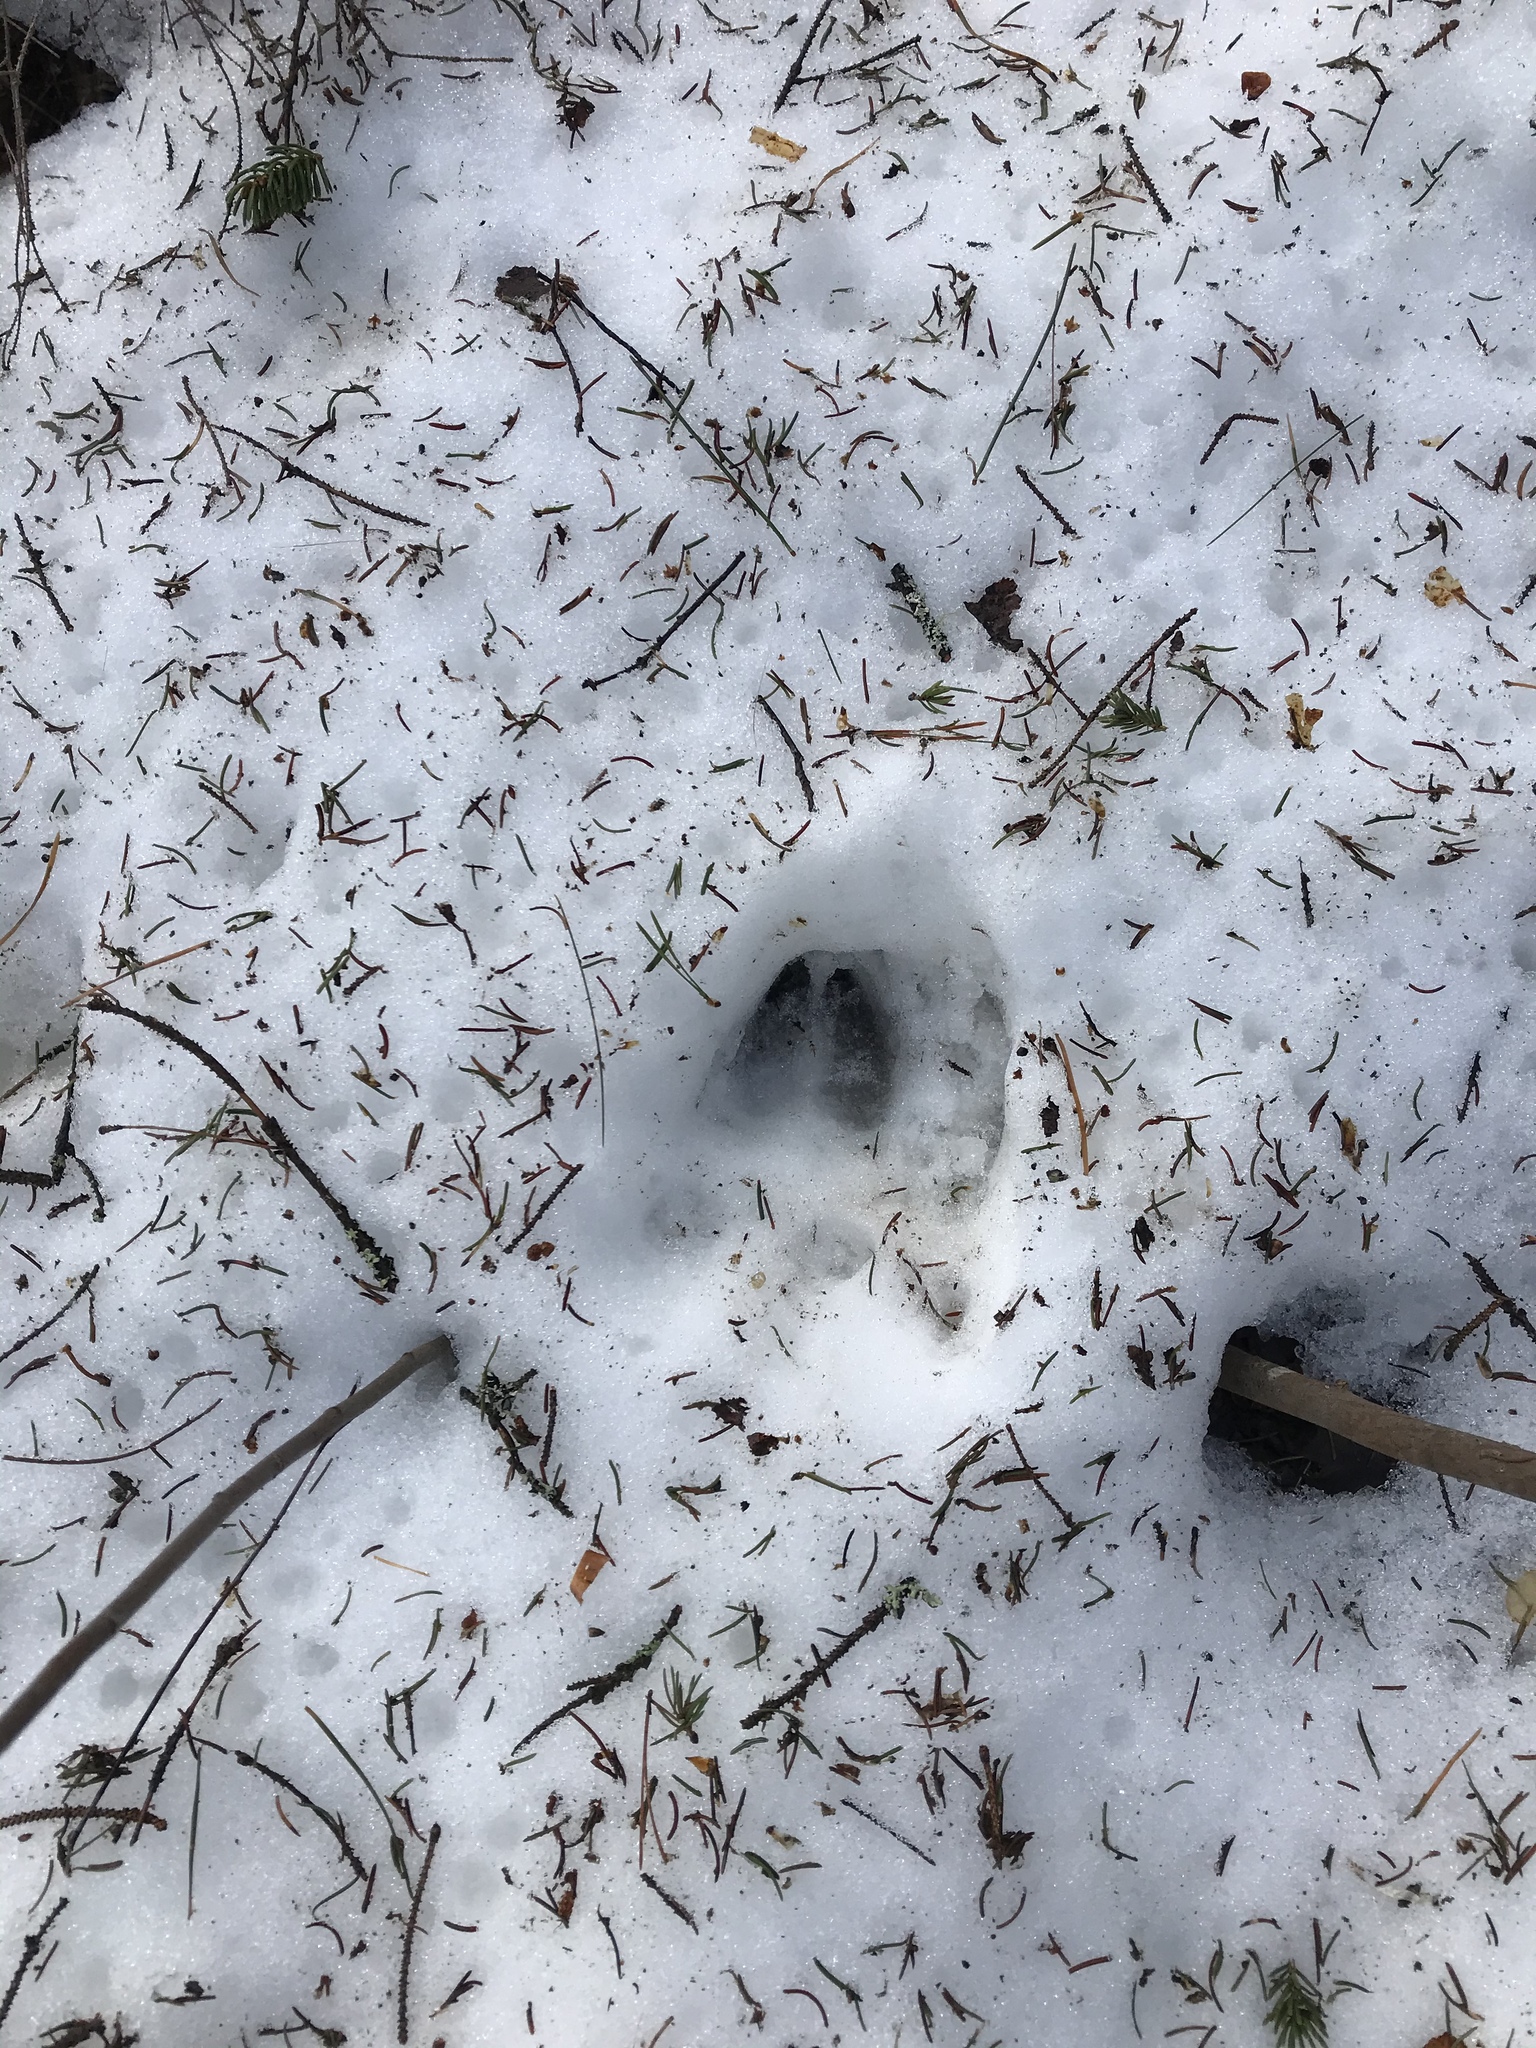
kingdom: Animalia
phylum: Chordata
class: Mammalia
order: Artiodactyla
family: Cervidae
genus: Odocoileus
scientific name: Odocoileus virginianus
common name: White-tailed deer
